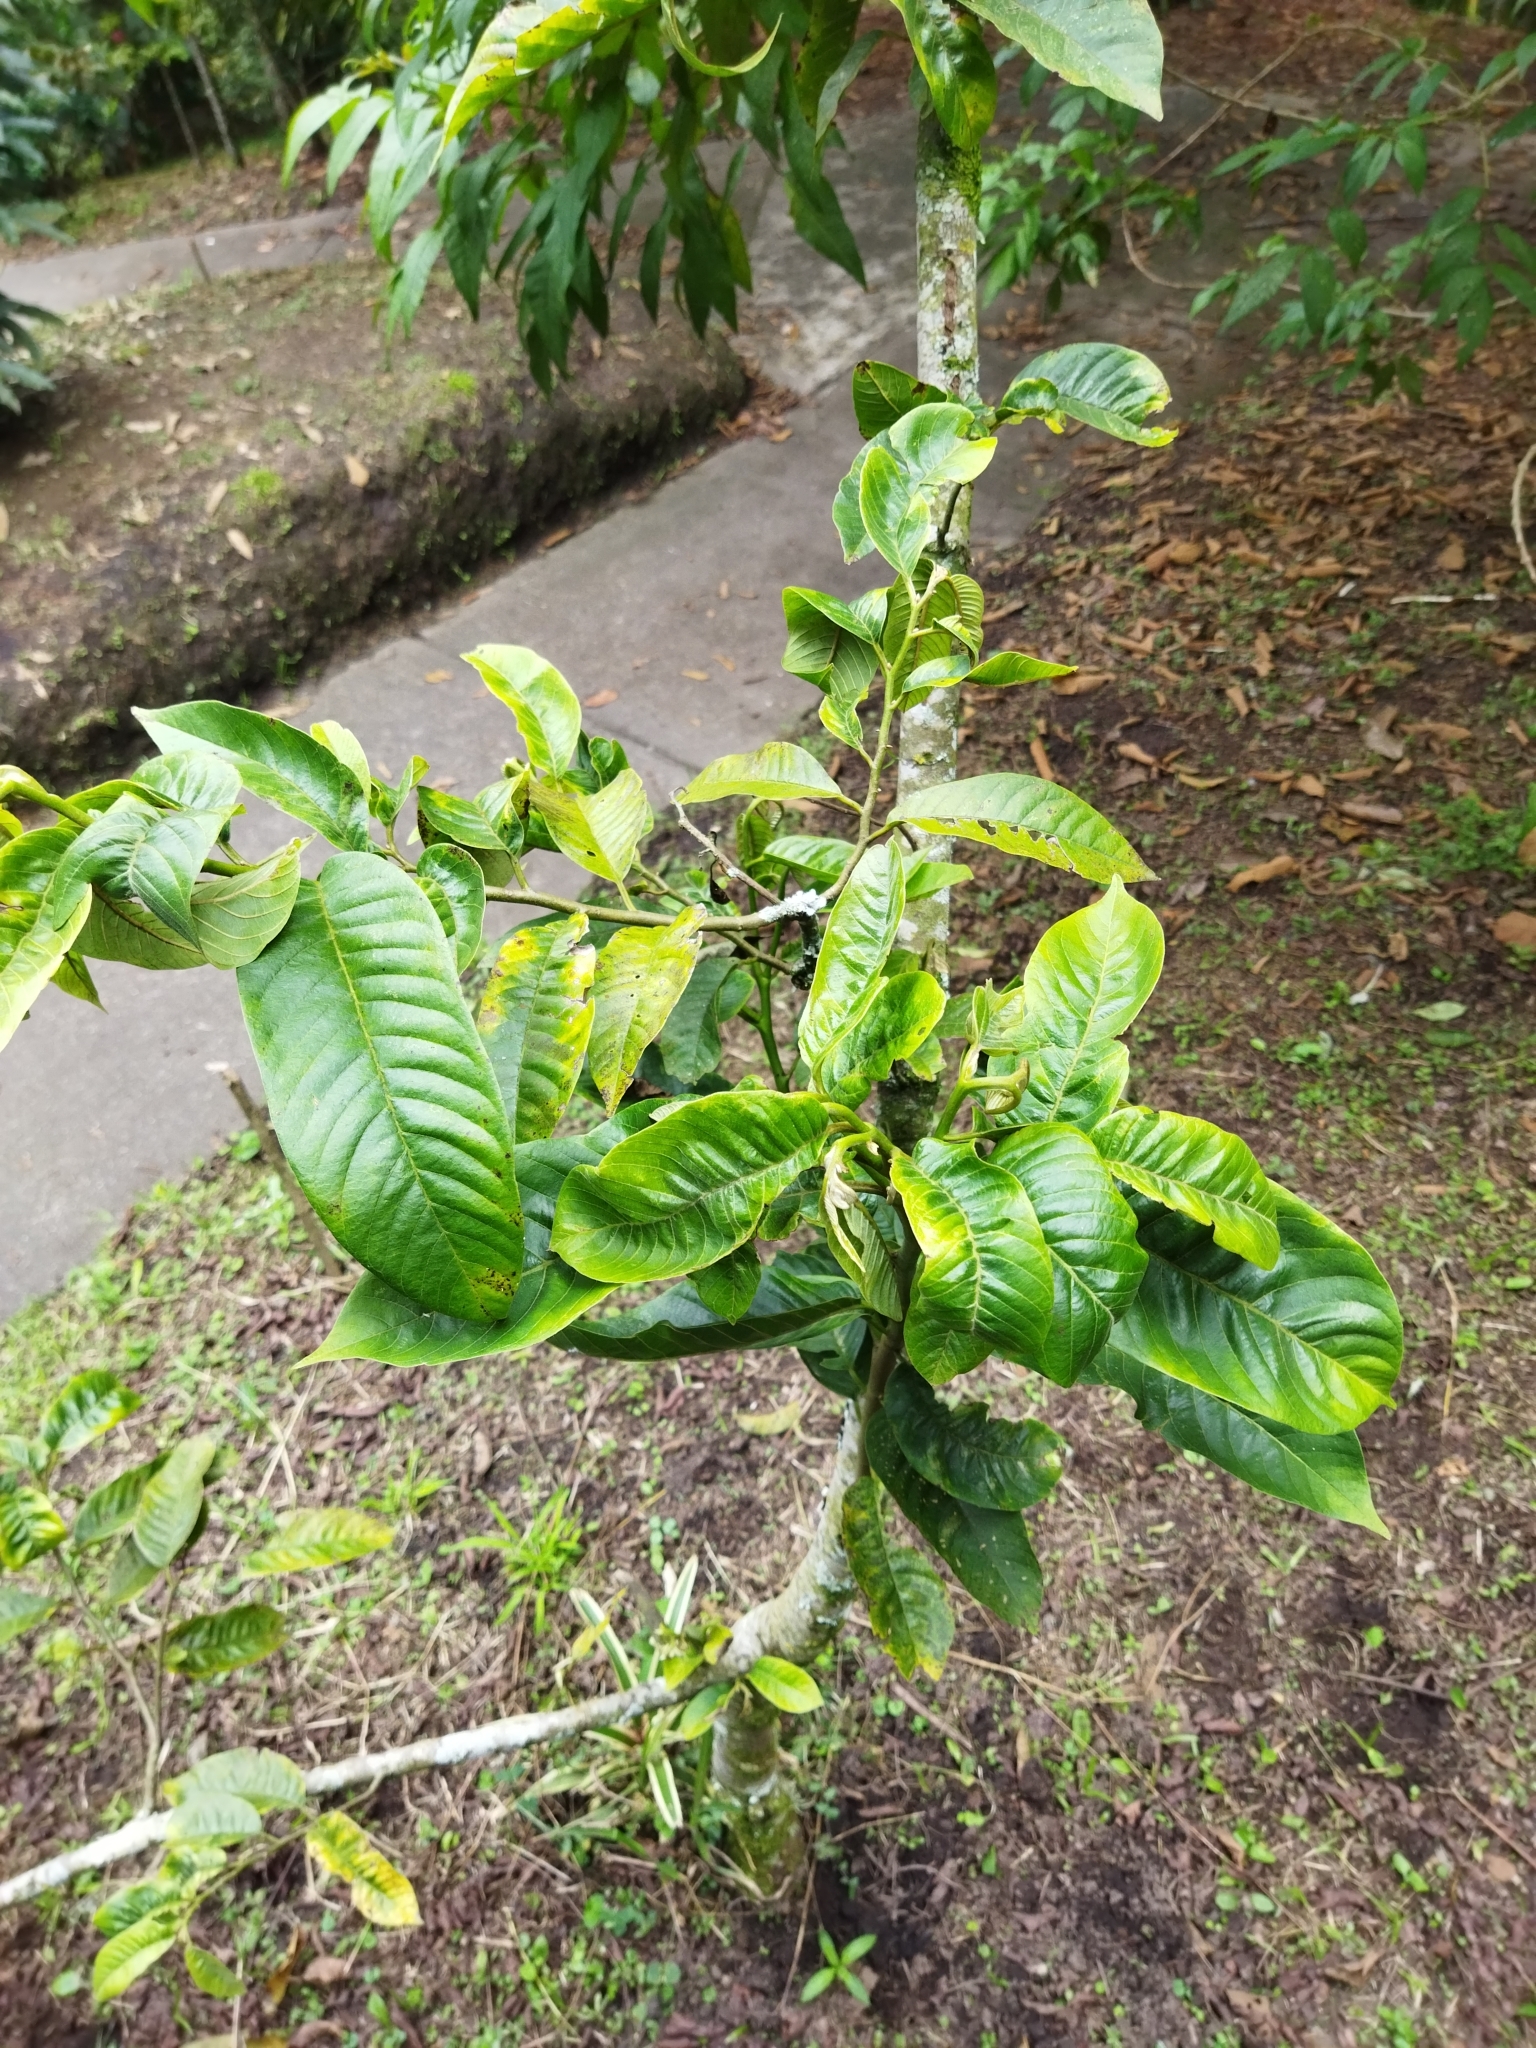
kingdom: Plantae
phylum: Tracheophyta
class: Magnoliopsida
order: Magnoliales
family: Annonaceae
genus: Annona
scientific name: Annona rensoniana
